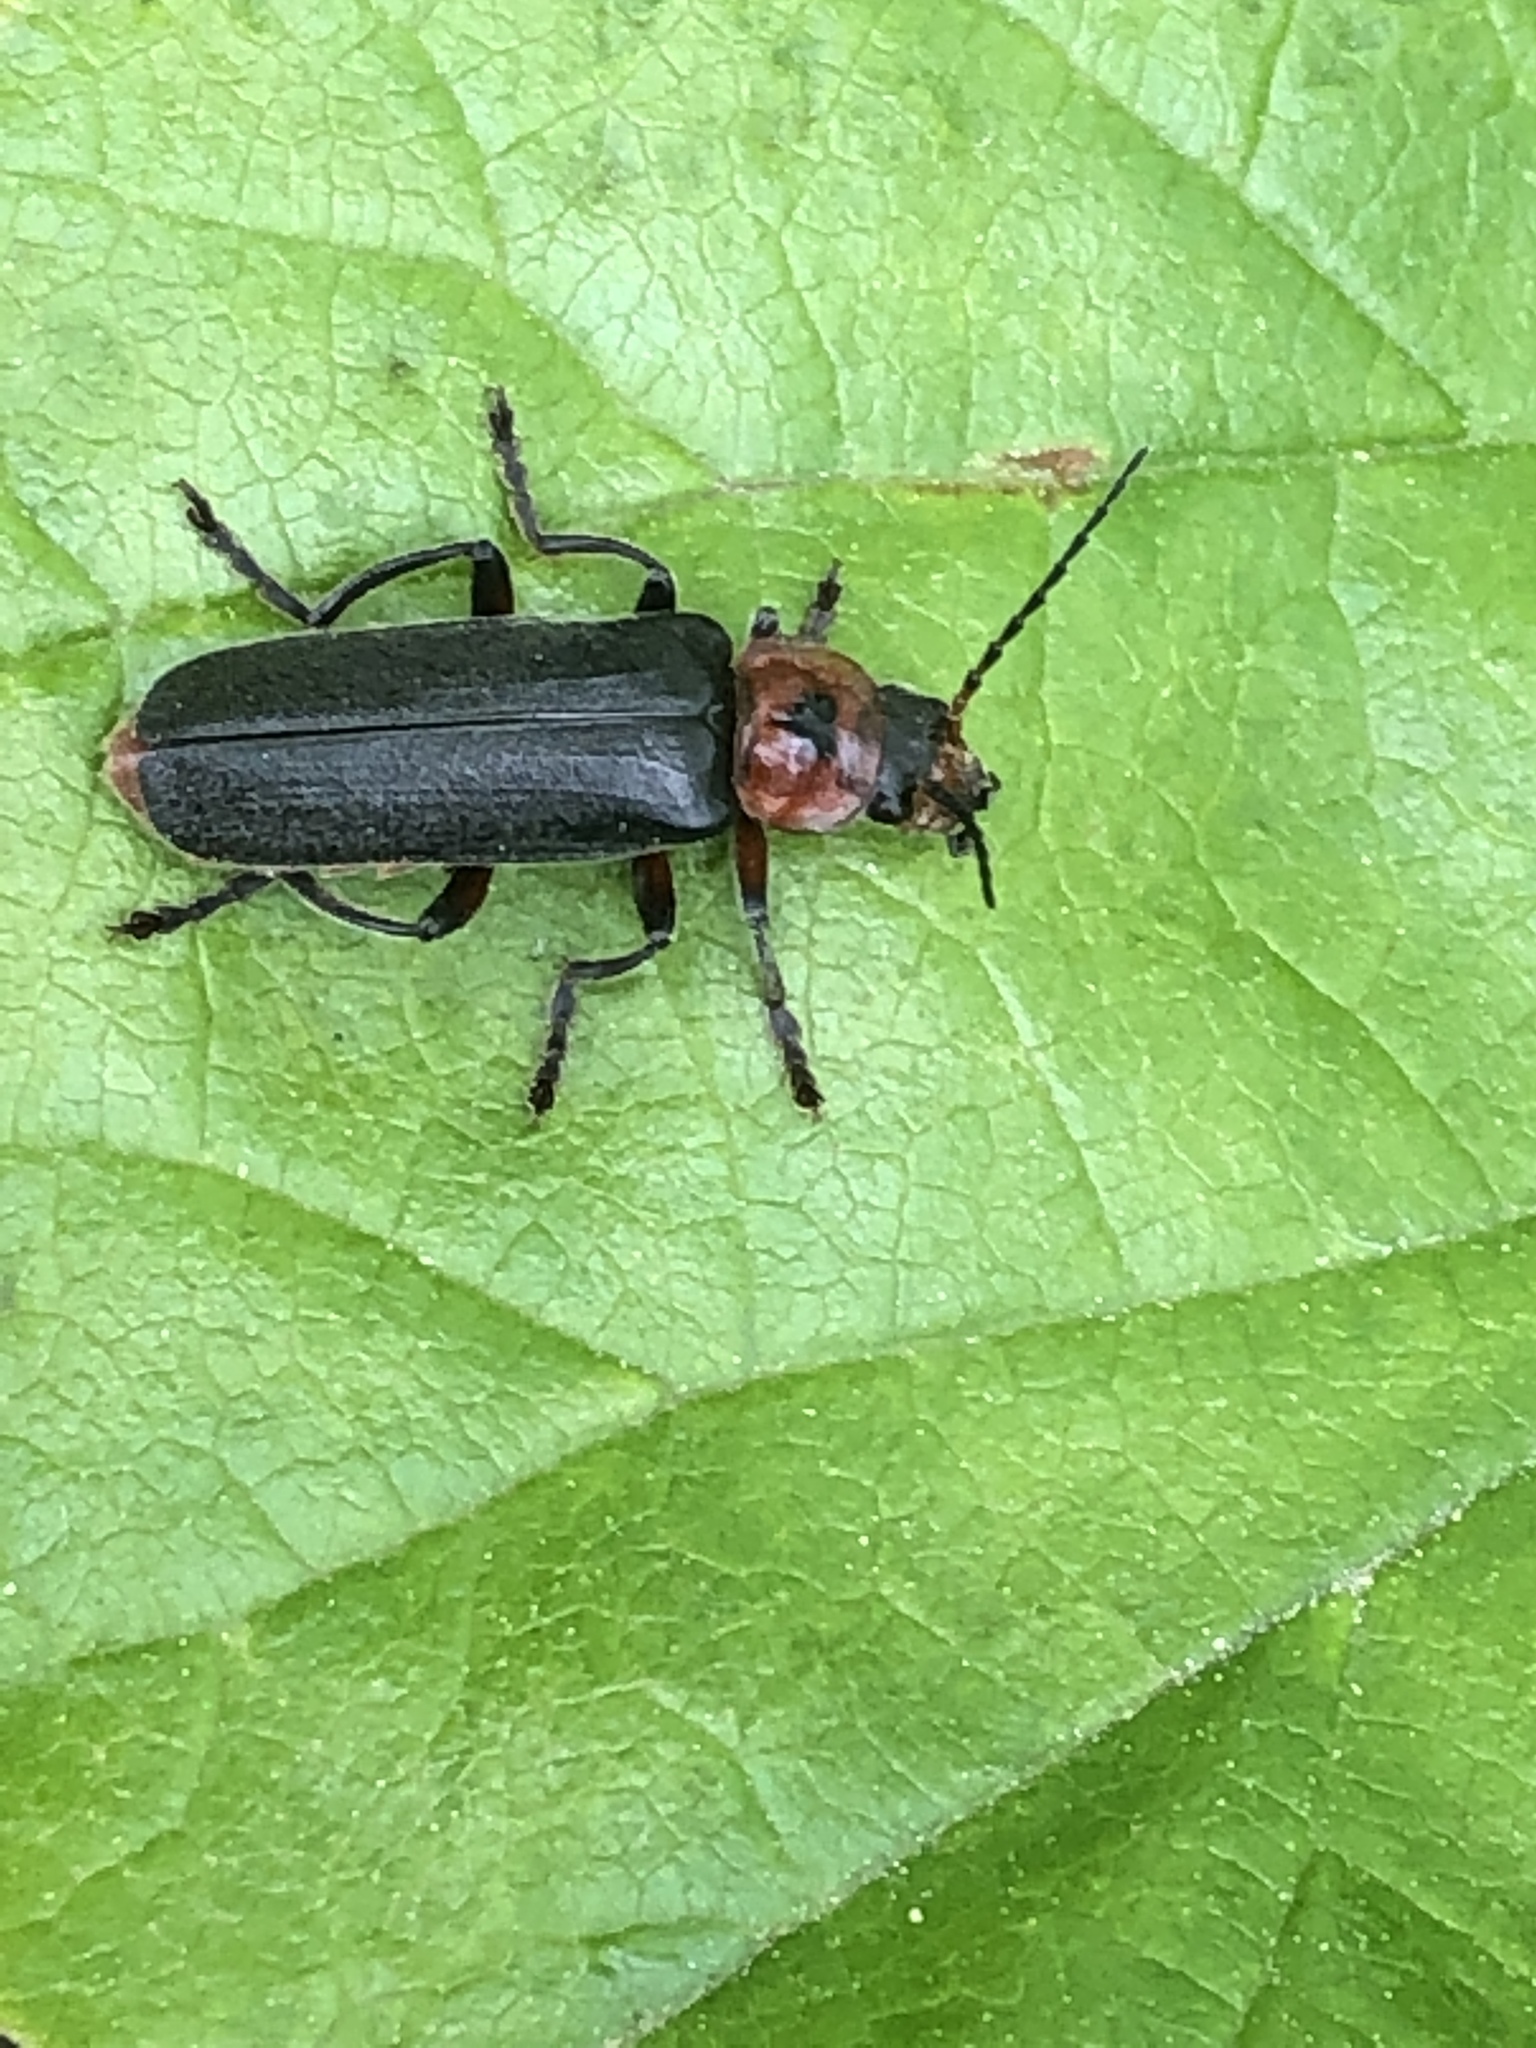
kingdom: Animalia
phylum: Arthropoda
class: Insecta
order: Coleoptera
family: Cantharidae
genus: Cantharis
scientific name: Cantharis rustica
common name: Soldier beetle
